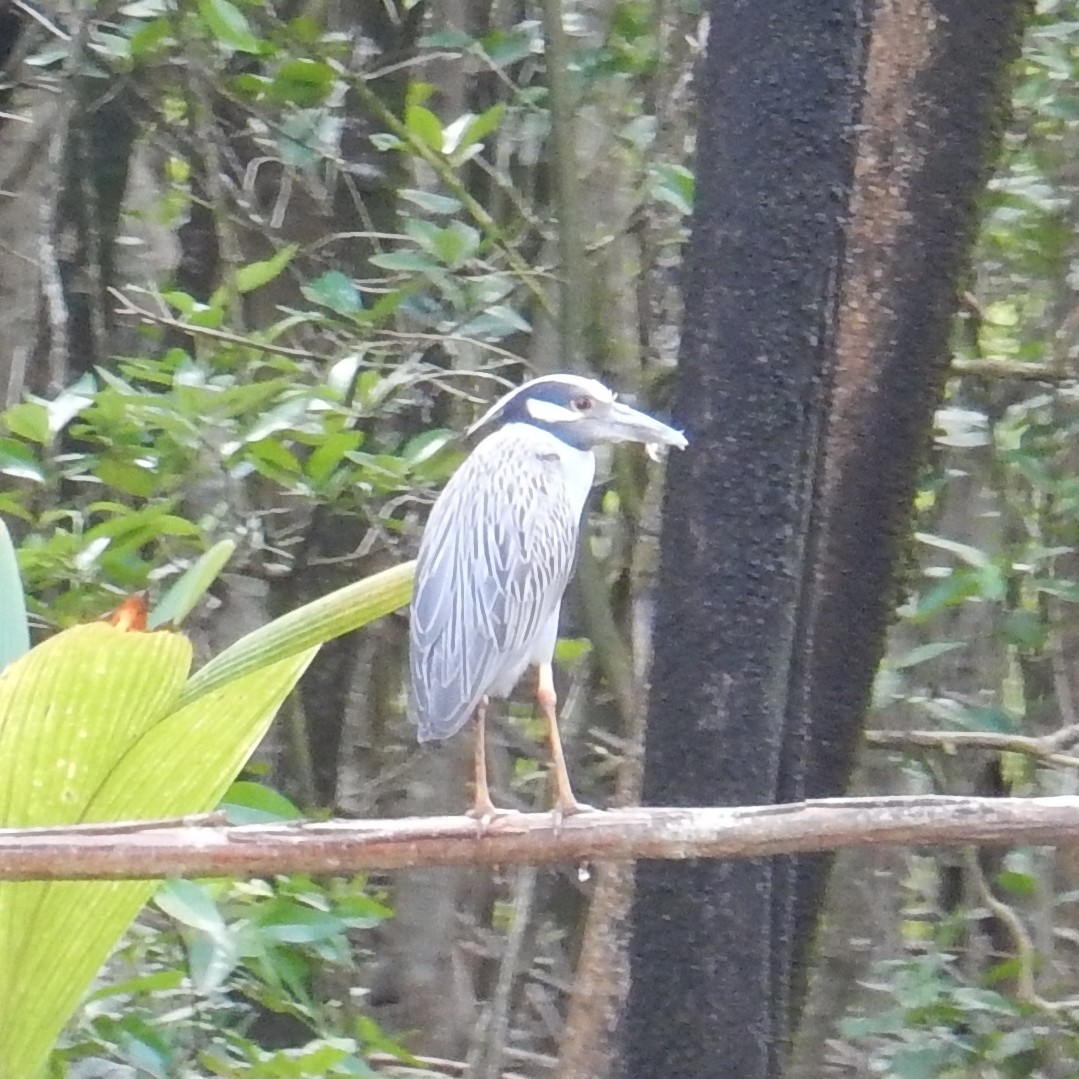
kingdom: Animalia
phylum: Chordata
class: Aves
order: Pelecaniformes
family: Ardeidae
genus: Nyctanassa
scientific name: Nyctanassa violacea
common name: Yellow-crowned night heron
